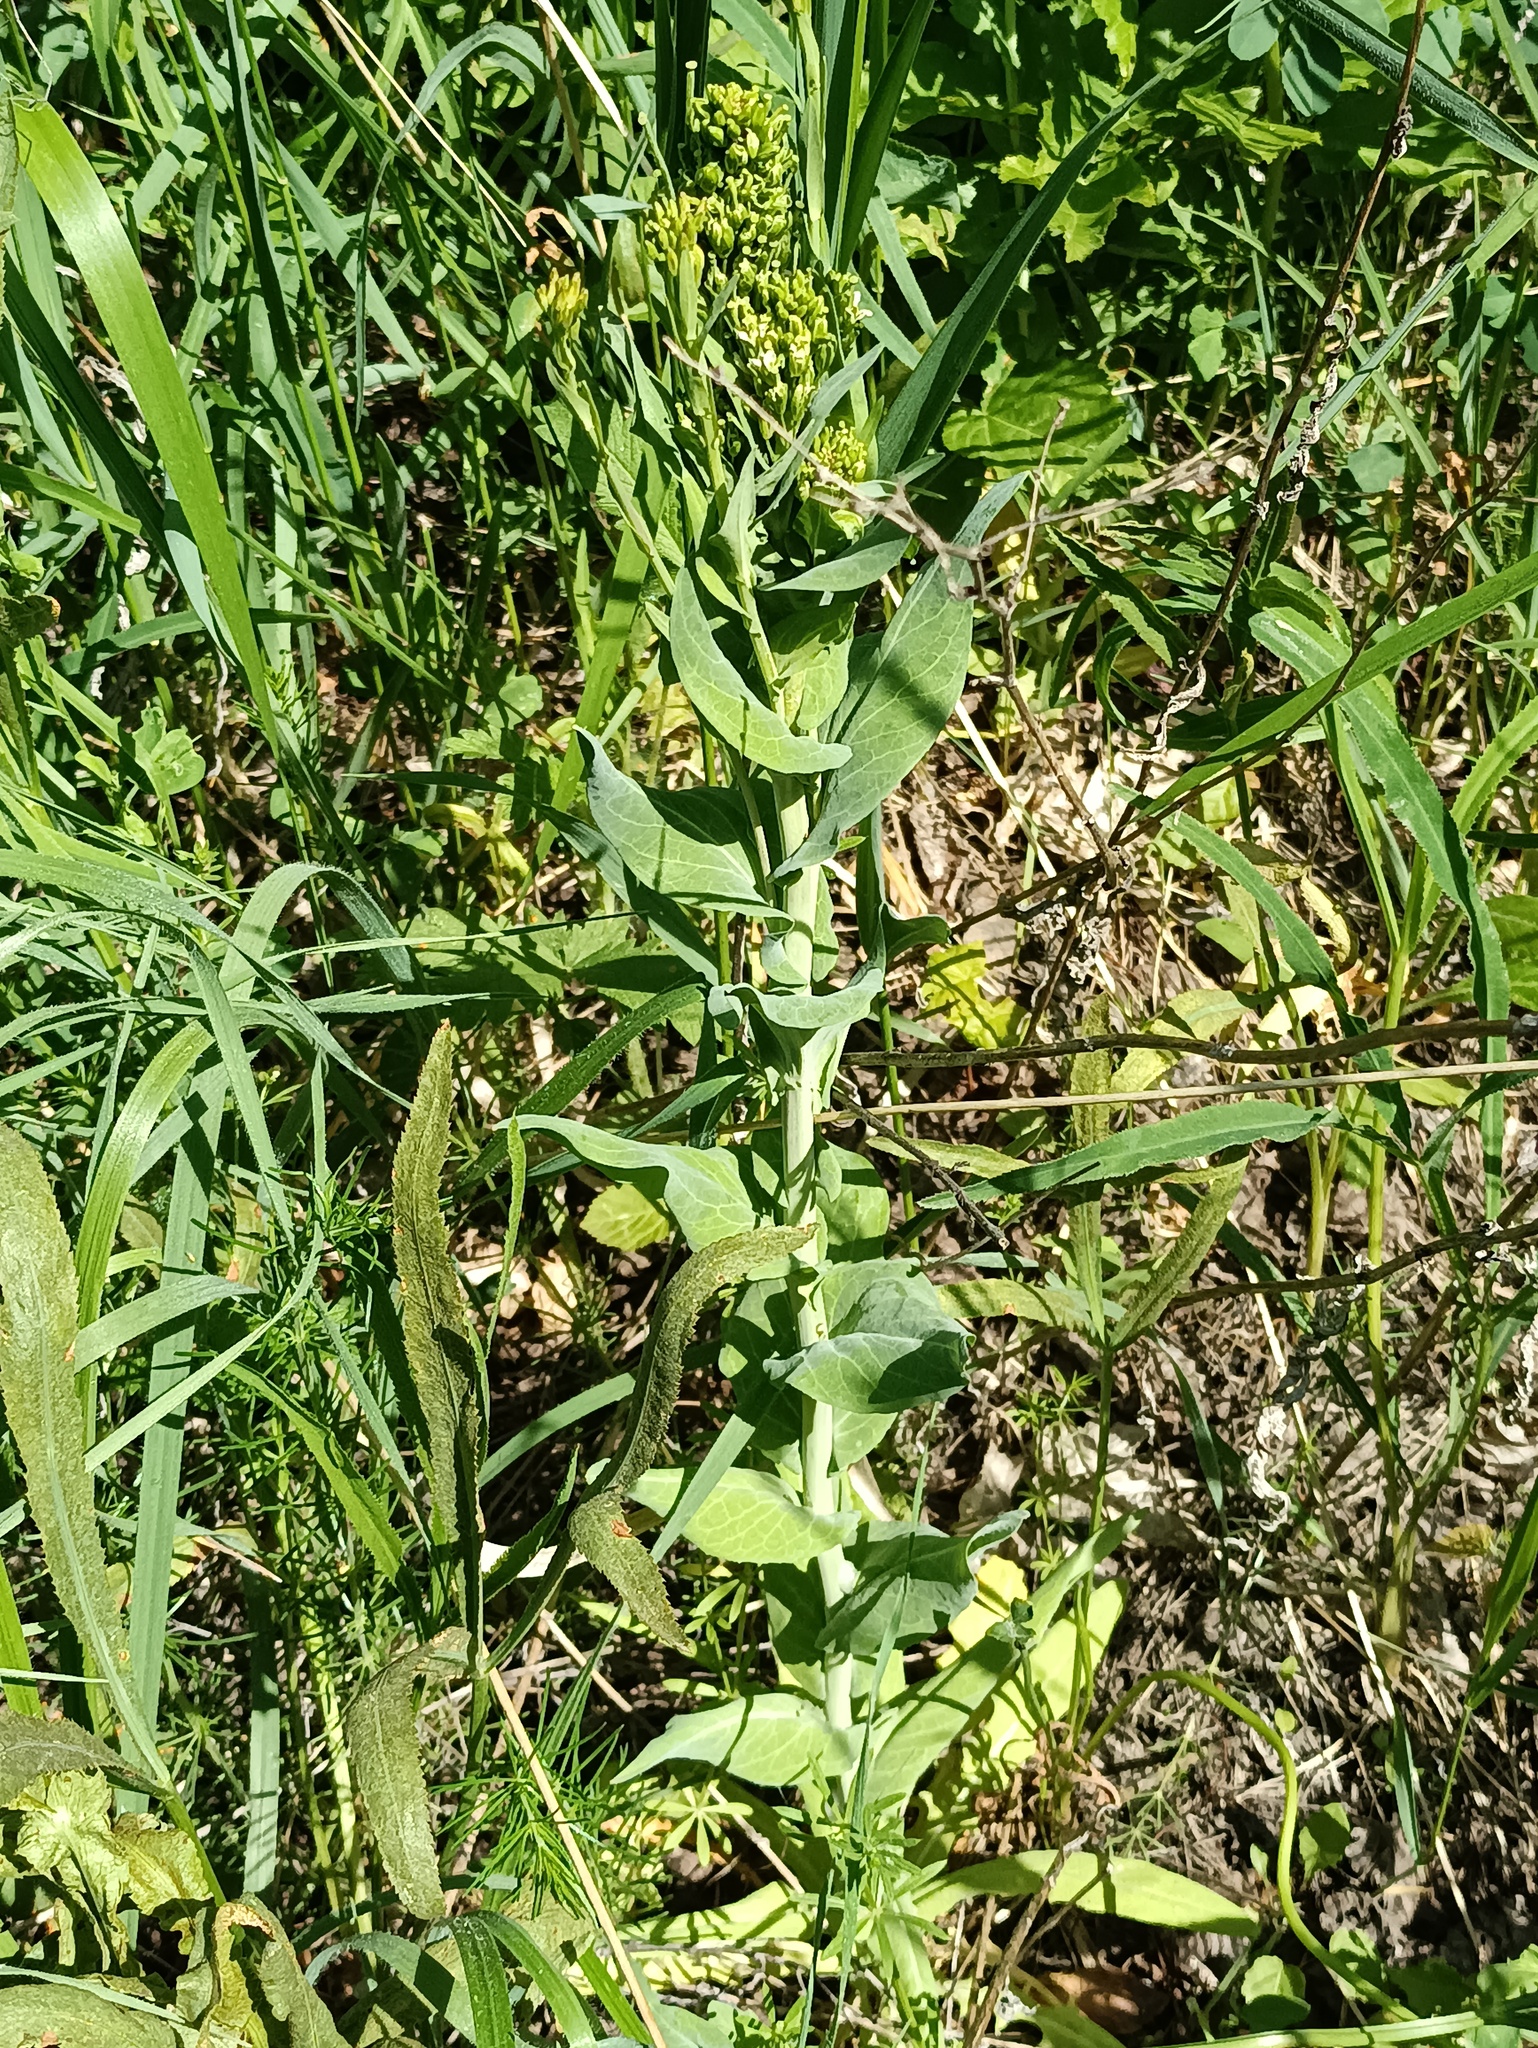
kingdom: Plantae
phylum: Tracheophyta
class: Magnoliopsida
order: Brassicales
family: Brassicaceae
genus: Turritis
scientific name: Turritis glabra
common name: Tower rockcress
